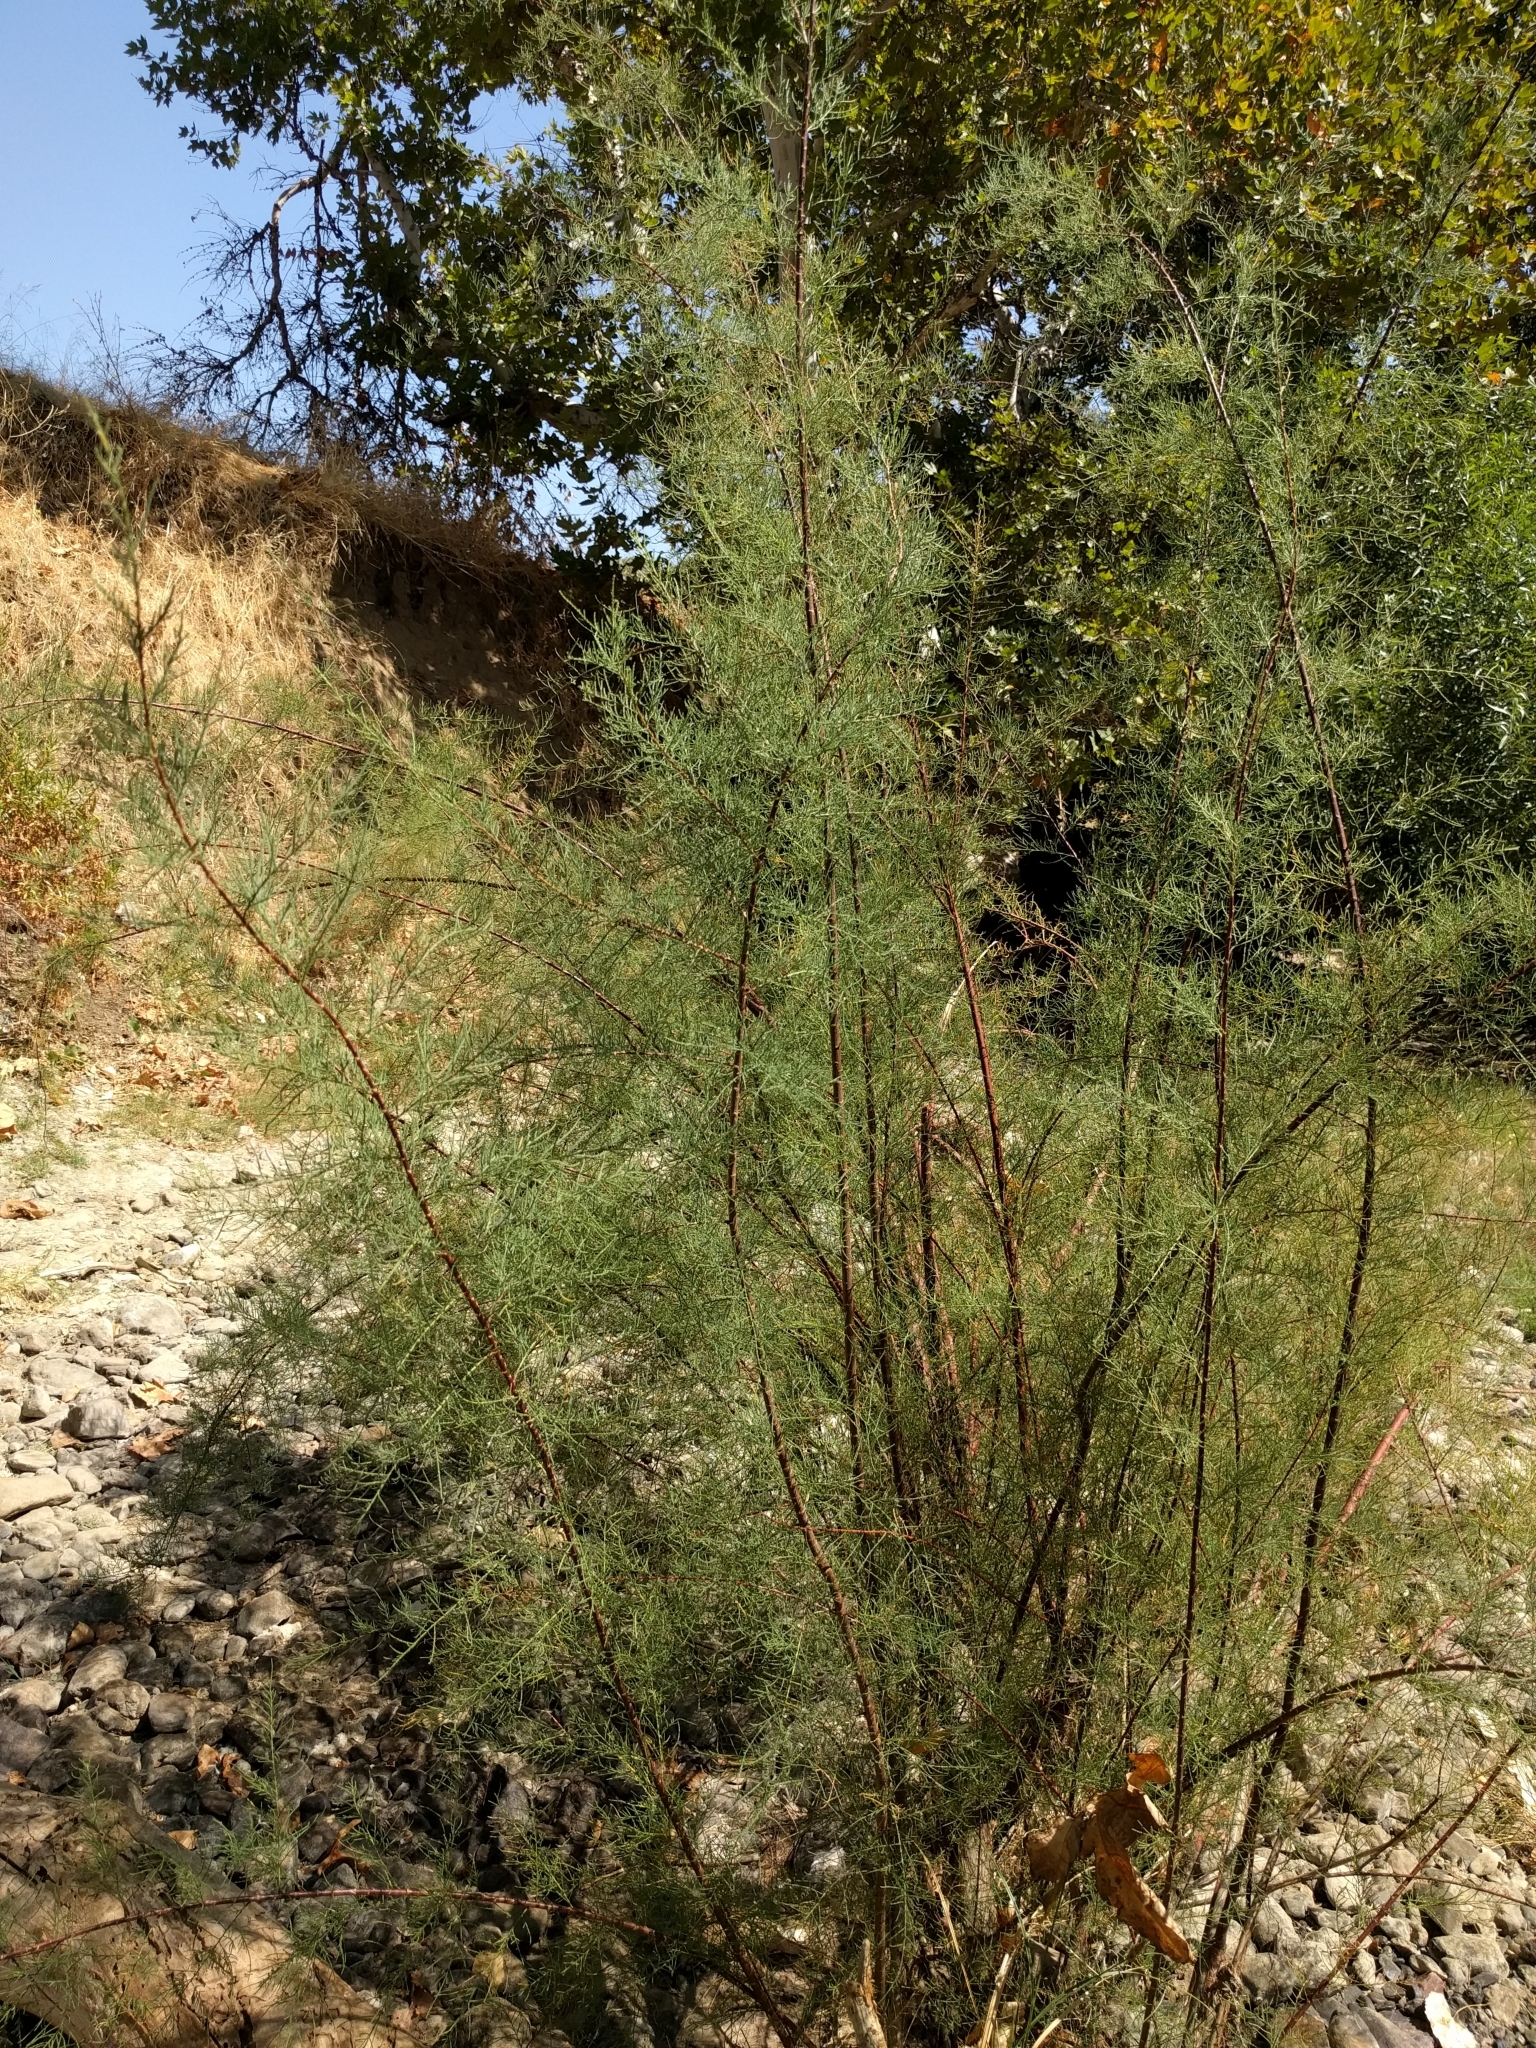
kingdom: Plantae
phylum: Tracheophyta
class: Magnoliopsida
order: Caryophyllales
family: Tamaricaceae
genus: Tamarix
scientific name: Tamarix ramosissima
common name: Pink tamarisk
